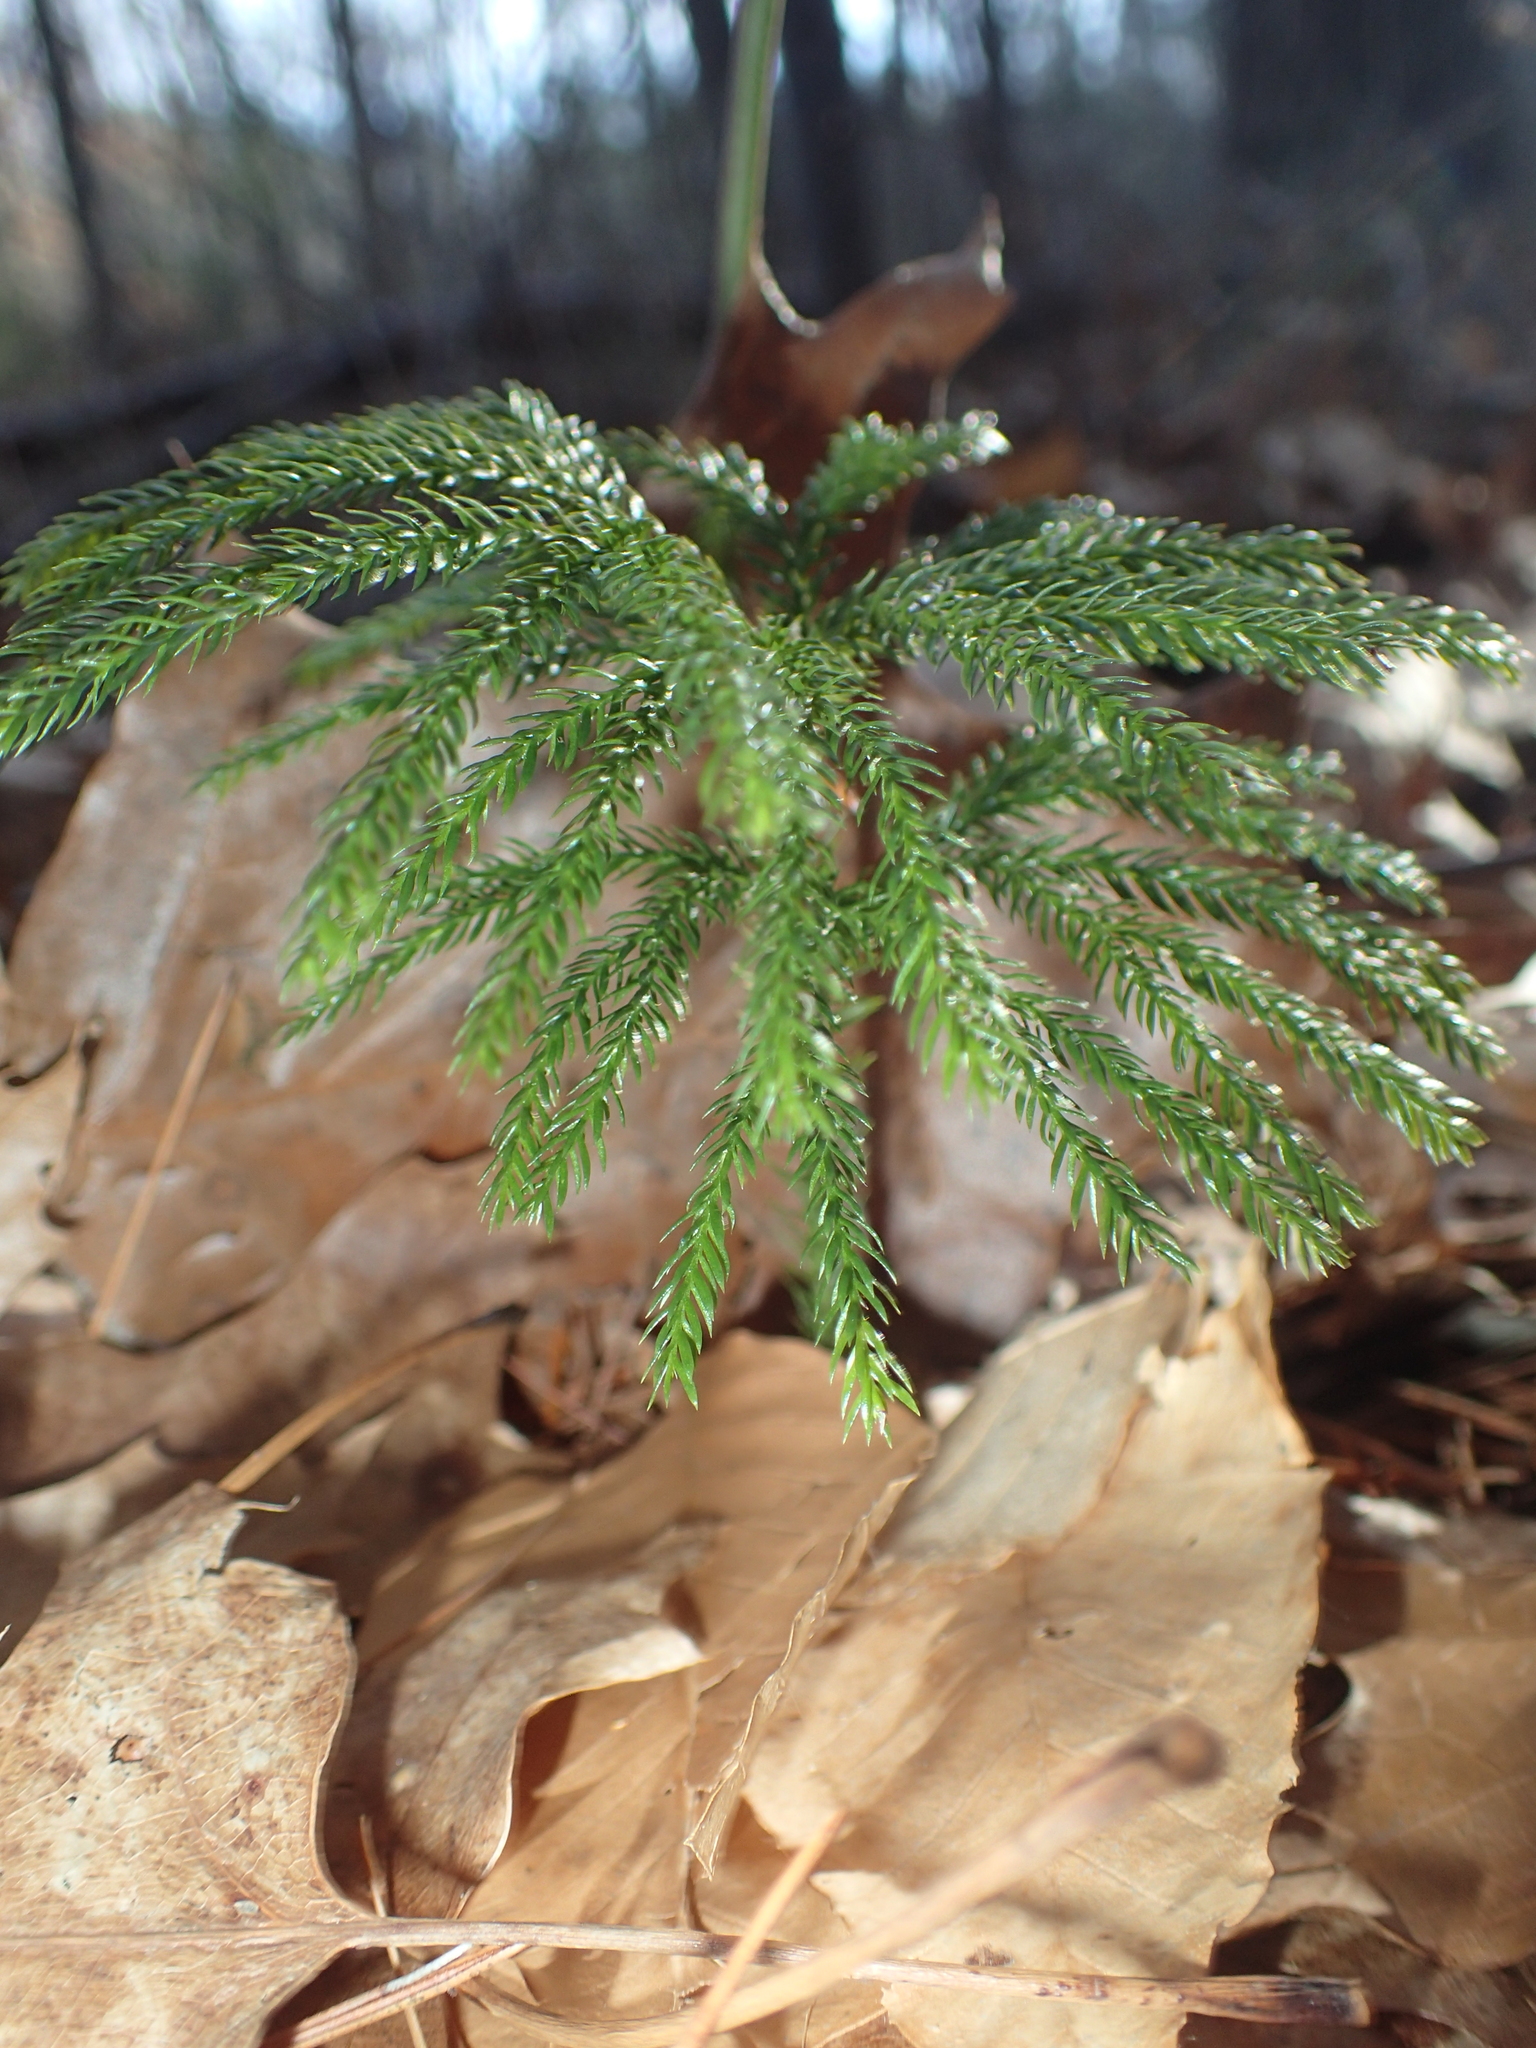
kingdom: Plantae
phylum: Tracheophyta
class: Lycopodiopsida
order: Lycopodiales
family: Lycopodiaceae
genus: Dendrolycopodium
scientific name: Dendrolycopodium dendroideum
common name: Northern tree-clubmoss
